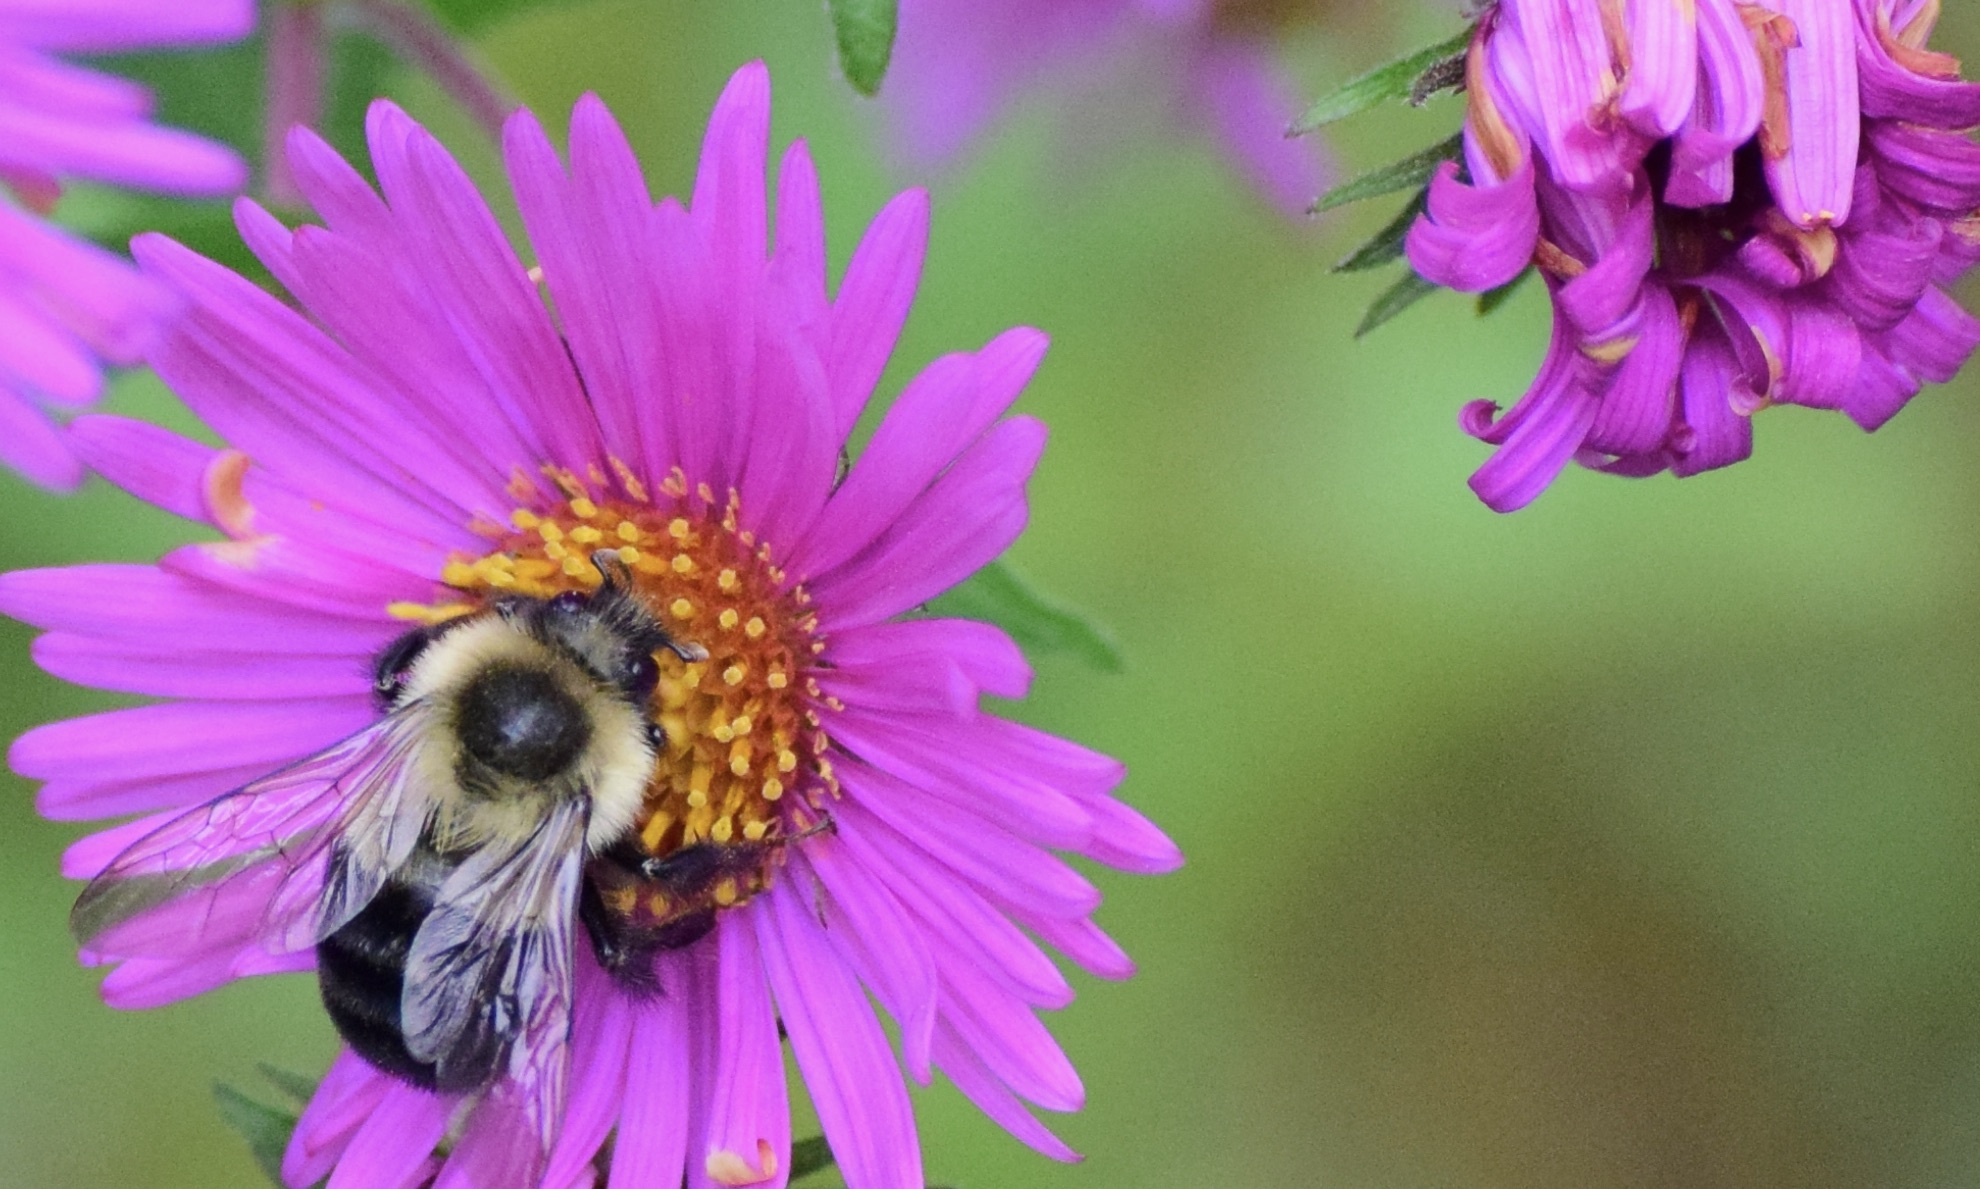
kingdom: Animalia
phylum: Arthropoda
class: Insecta
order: Hymenoptera
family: Apidae
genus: Bombus
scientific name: Bombus impatiens
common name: Common eastern bumble bee
